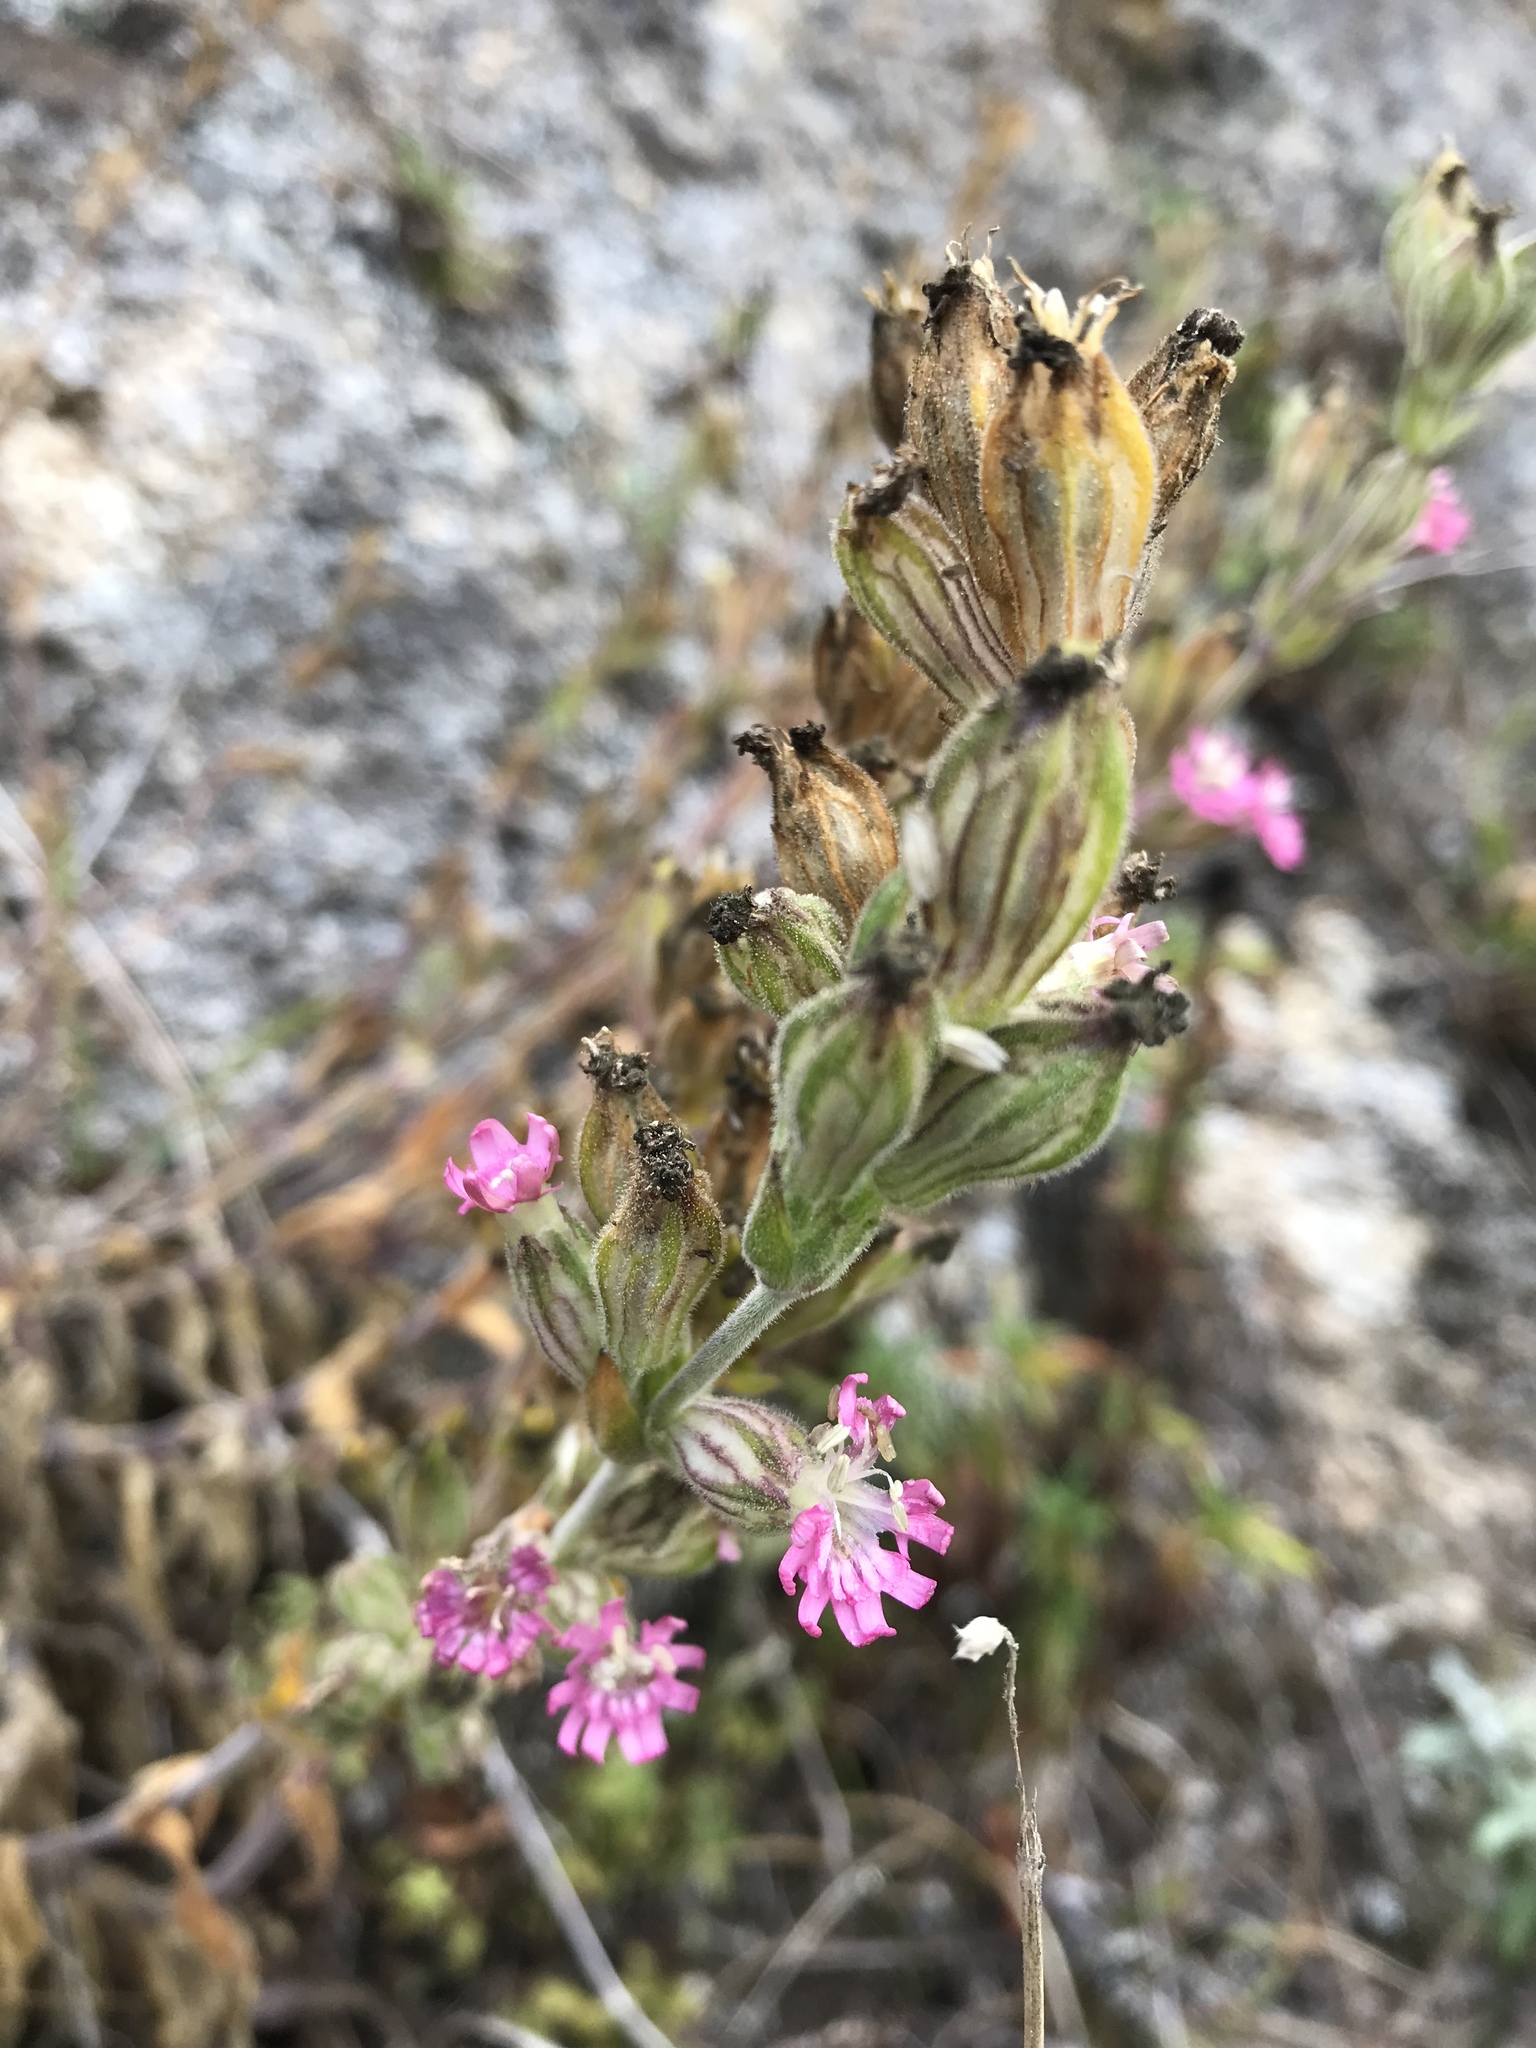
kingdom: Plantae
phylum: Tracheophyta
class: Magnoliopsida
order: Caryophyllales
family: Caryophyllaceae
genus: Silene
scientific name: Silene scouleri
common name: Scouler's campion
